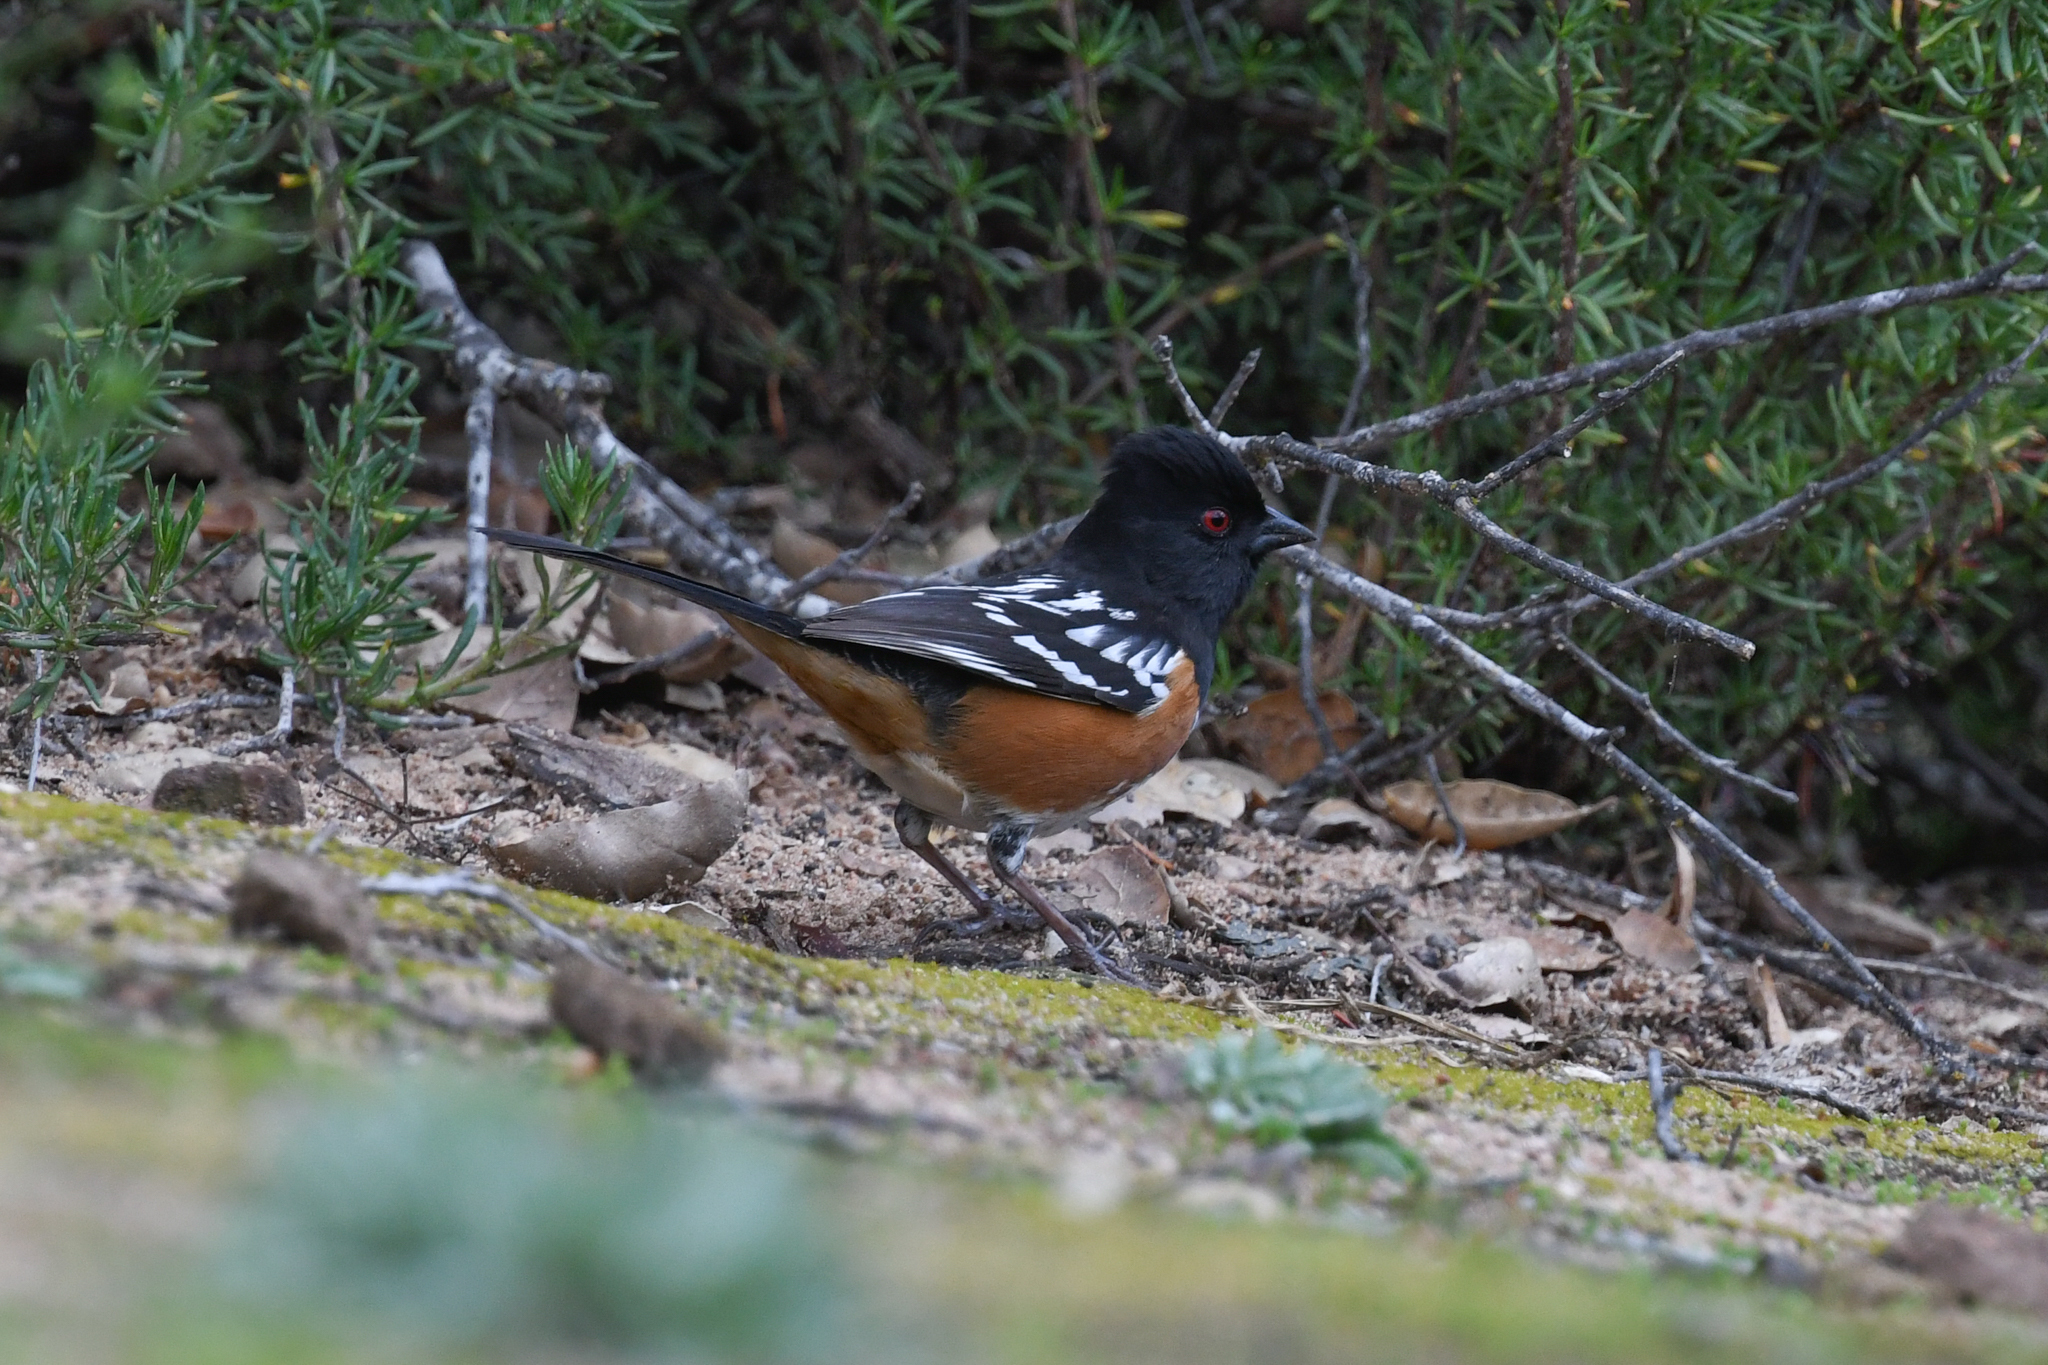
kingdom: Animalia
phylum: Chordata
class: Aves
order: Passeriformes
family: Passerellidae
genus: Pipilo
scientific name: Pipilo maculatus
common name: Spotted towhee
